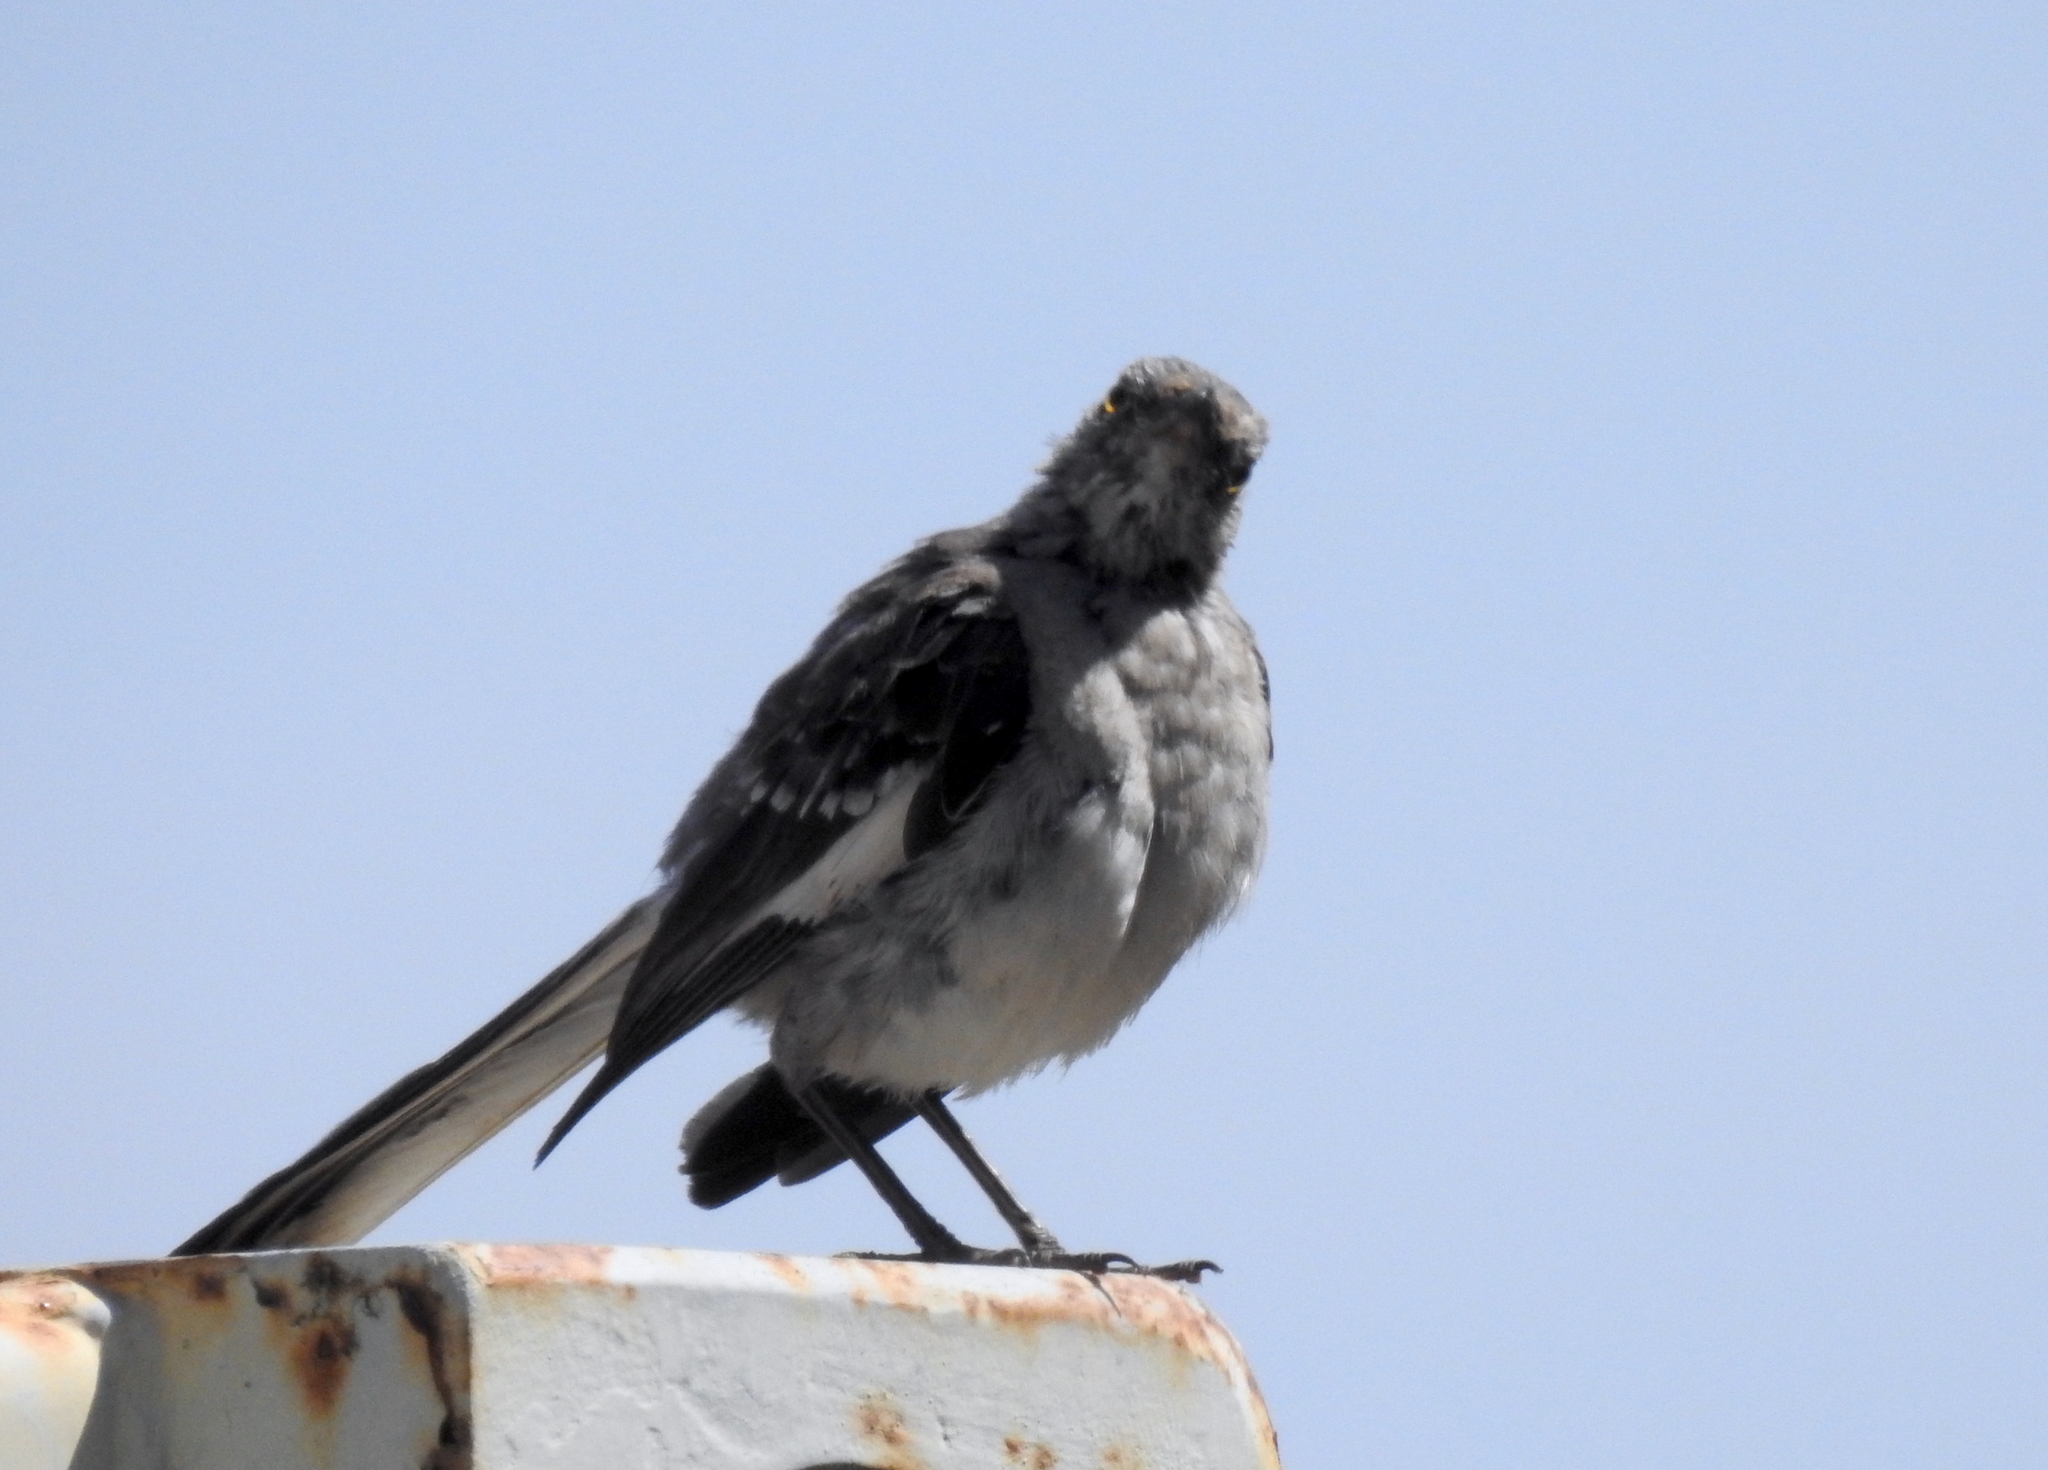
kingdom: Animalia
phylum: Chordata
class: Aves
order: Passeriformes
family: Mimidae
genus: Mimus
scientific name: Mimus polyglottos
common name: Northern mockingbird
